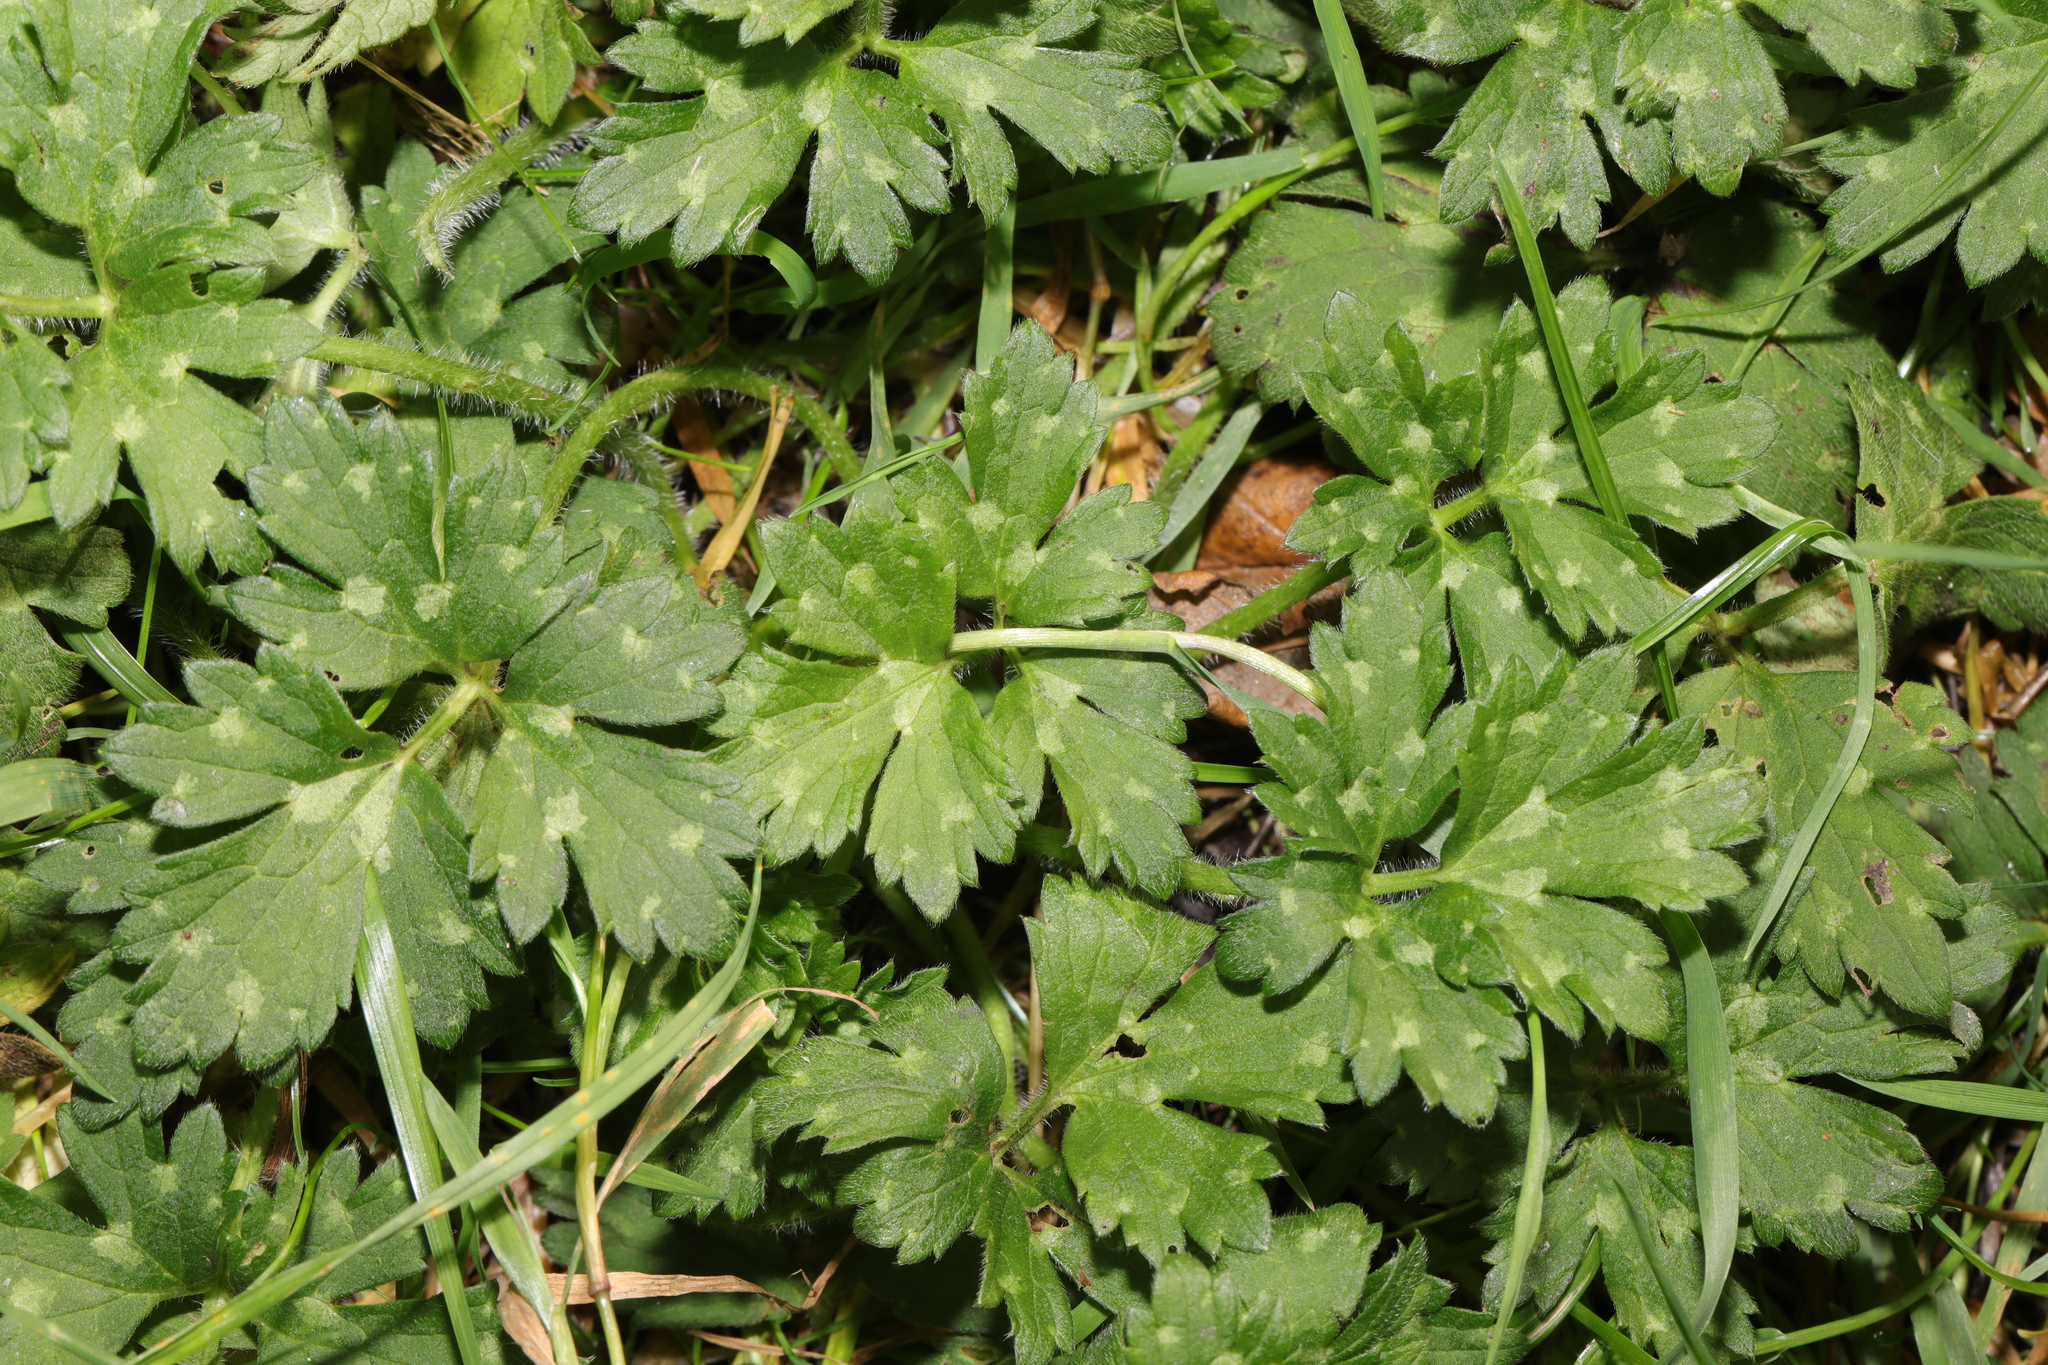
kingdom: Plantae
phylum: Tracheophyta
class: Magnoliopsida
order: Ranunculales
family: Ranunculaceae
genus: Ranunculus
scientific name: Ranunculus repens
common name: Creeping buttercup
